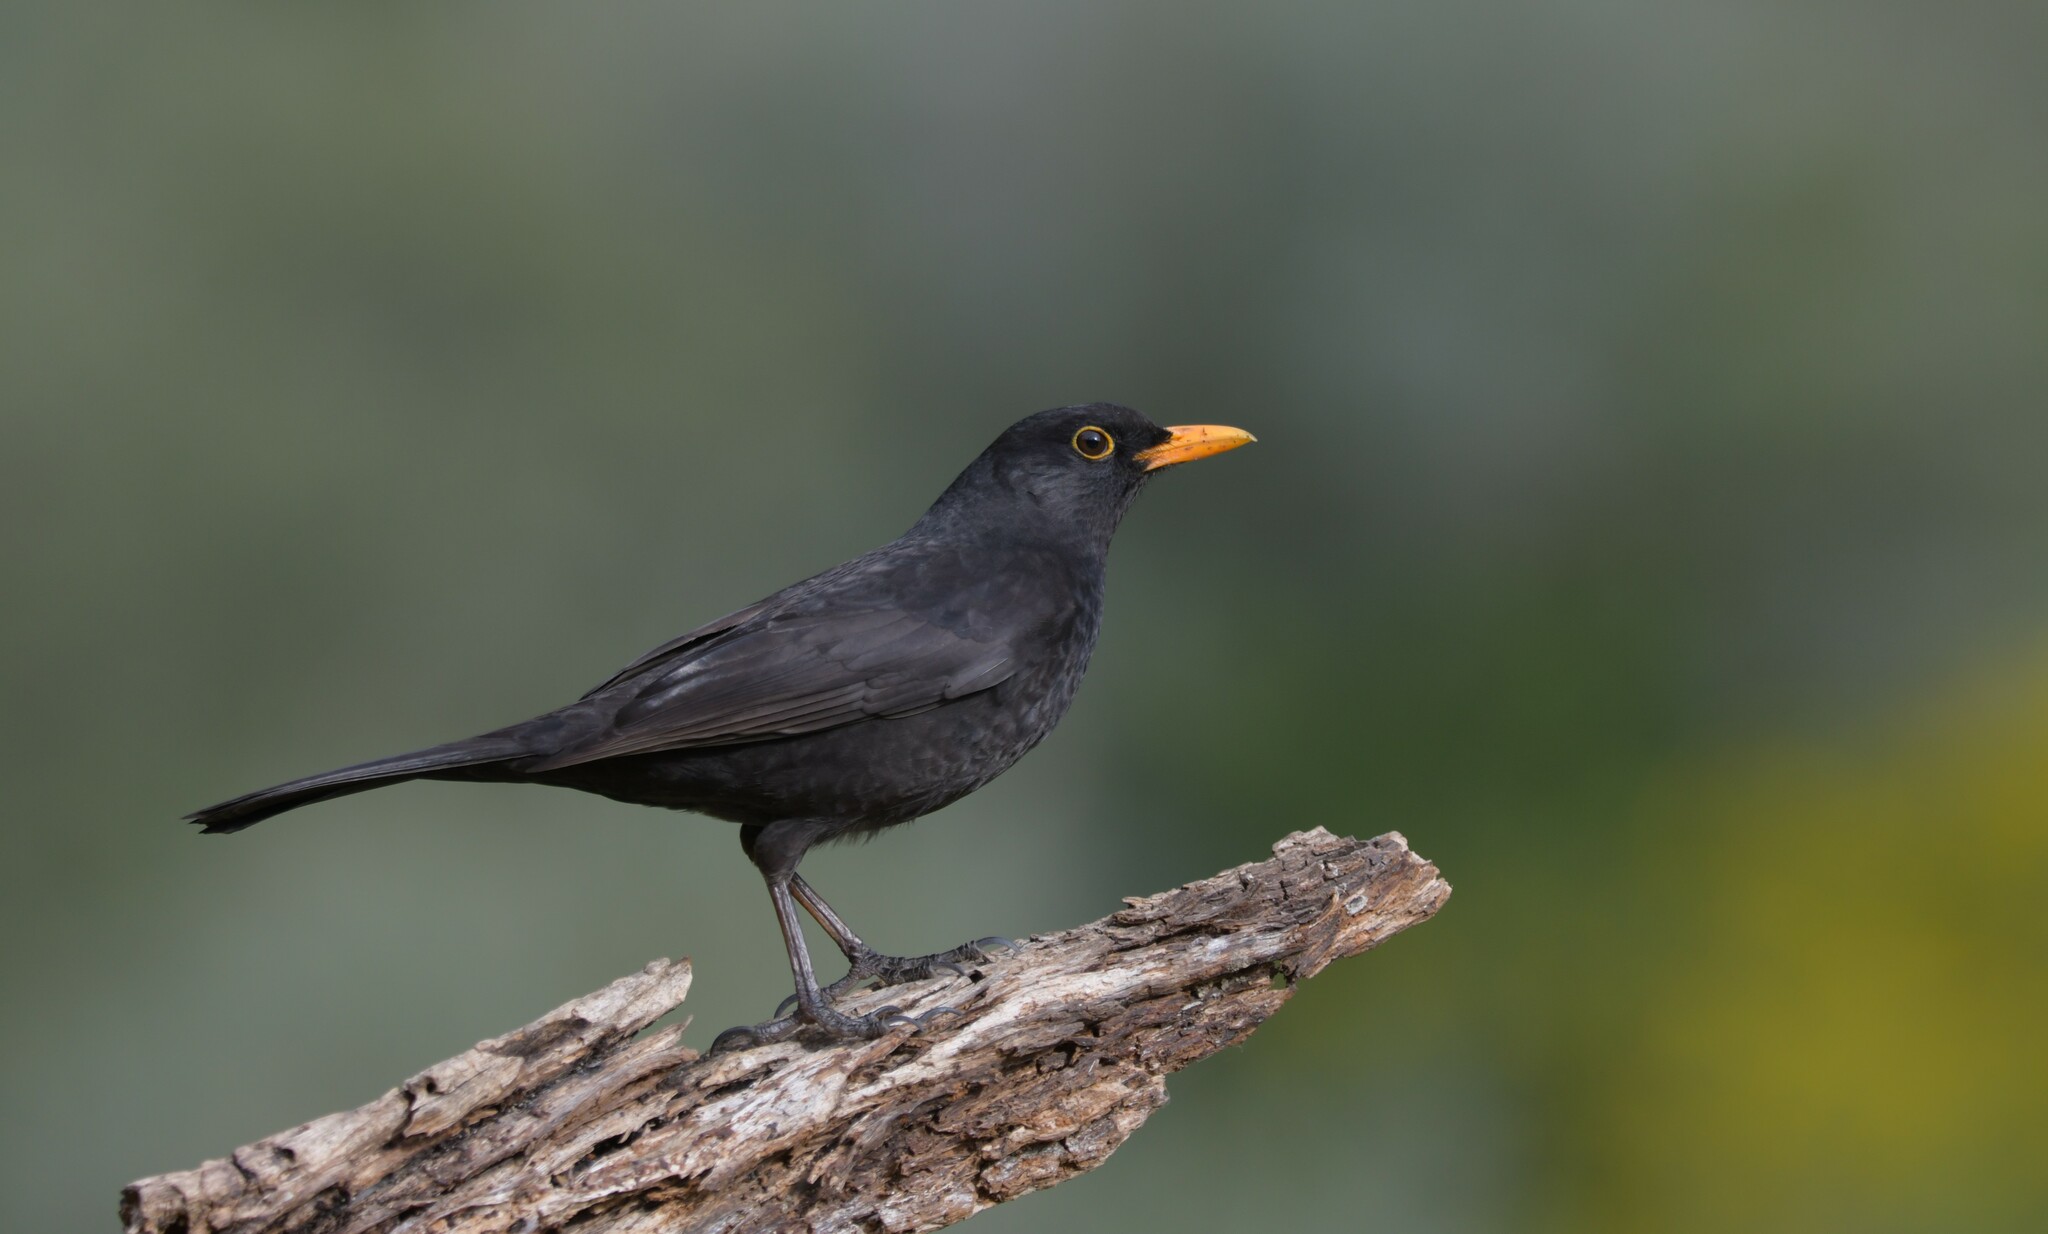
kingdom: Animalia
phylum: Chordata
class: Aves
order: Passeriformes
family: Turdidae
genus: Turdus
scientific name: Turdus merula
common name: Common blackbird
